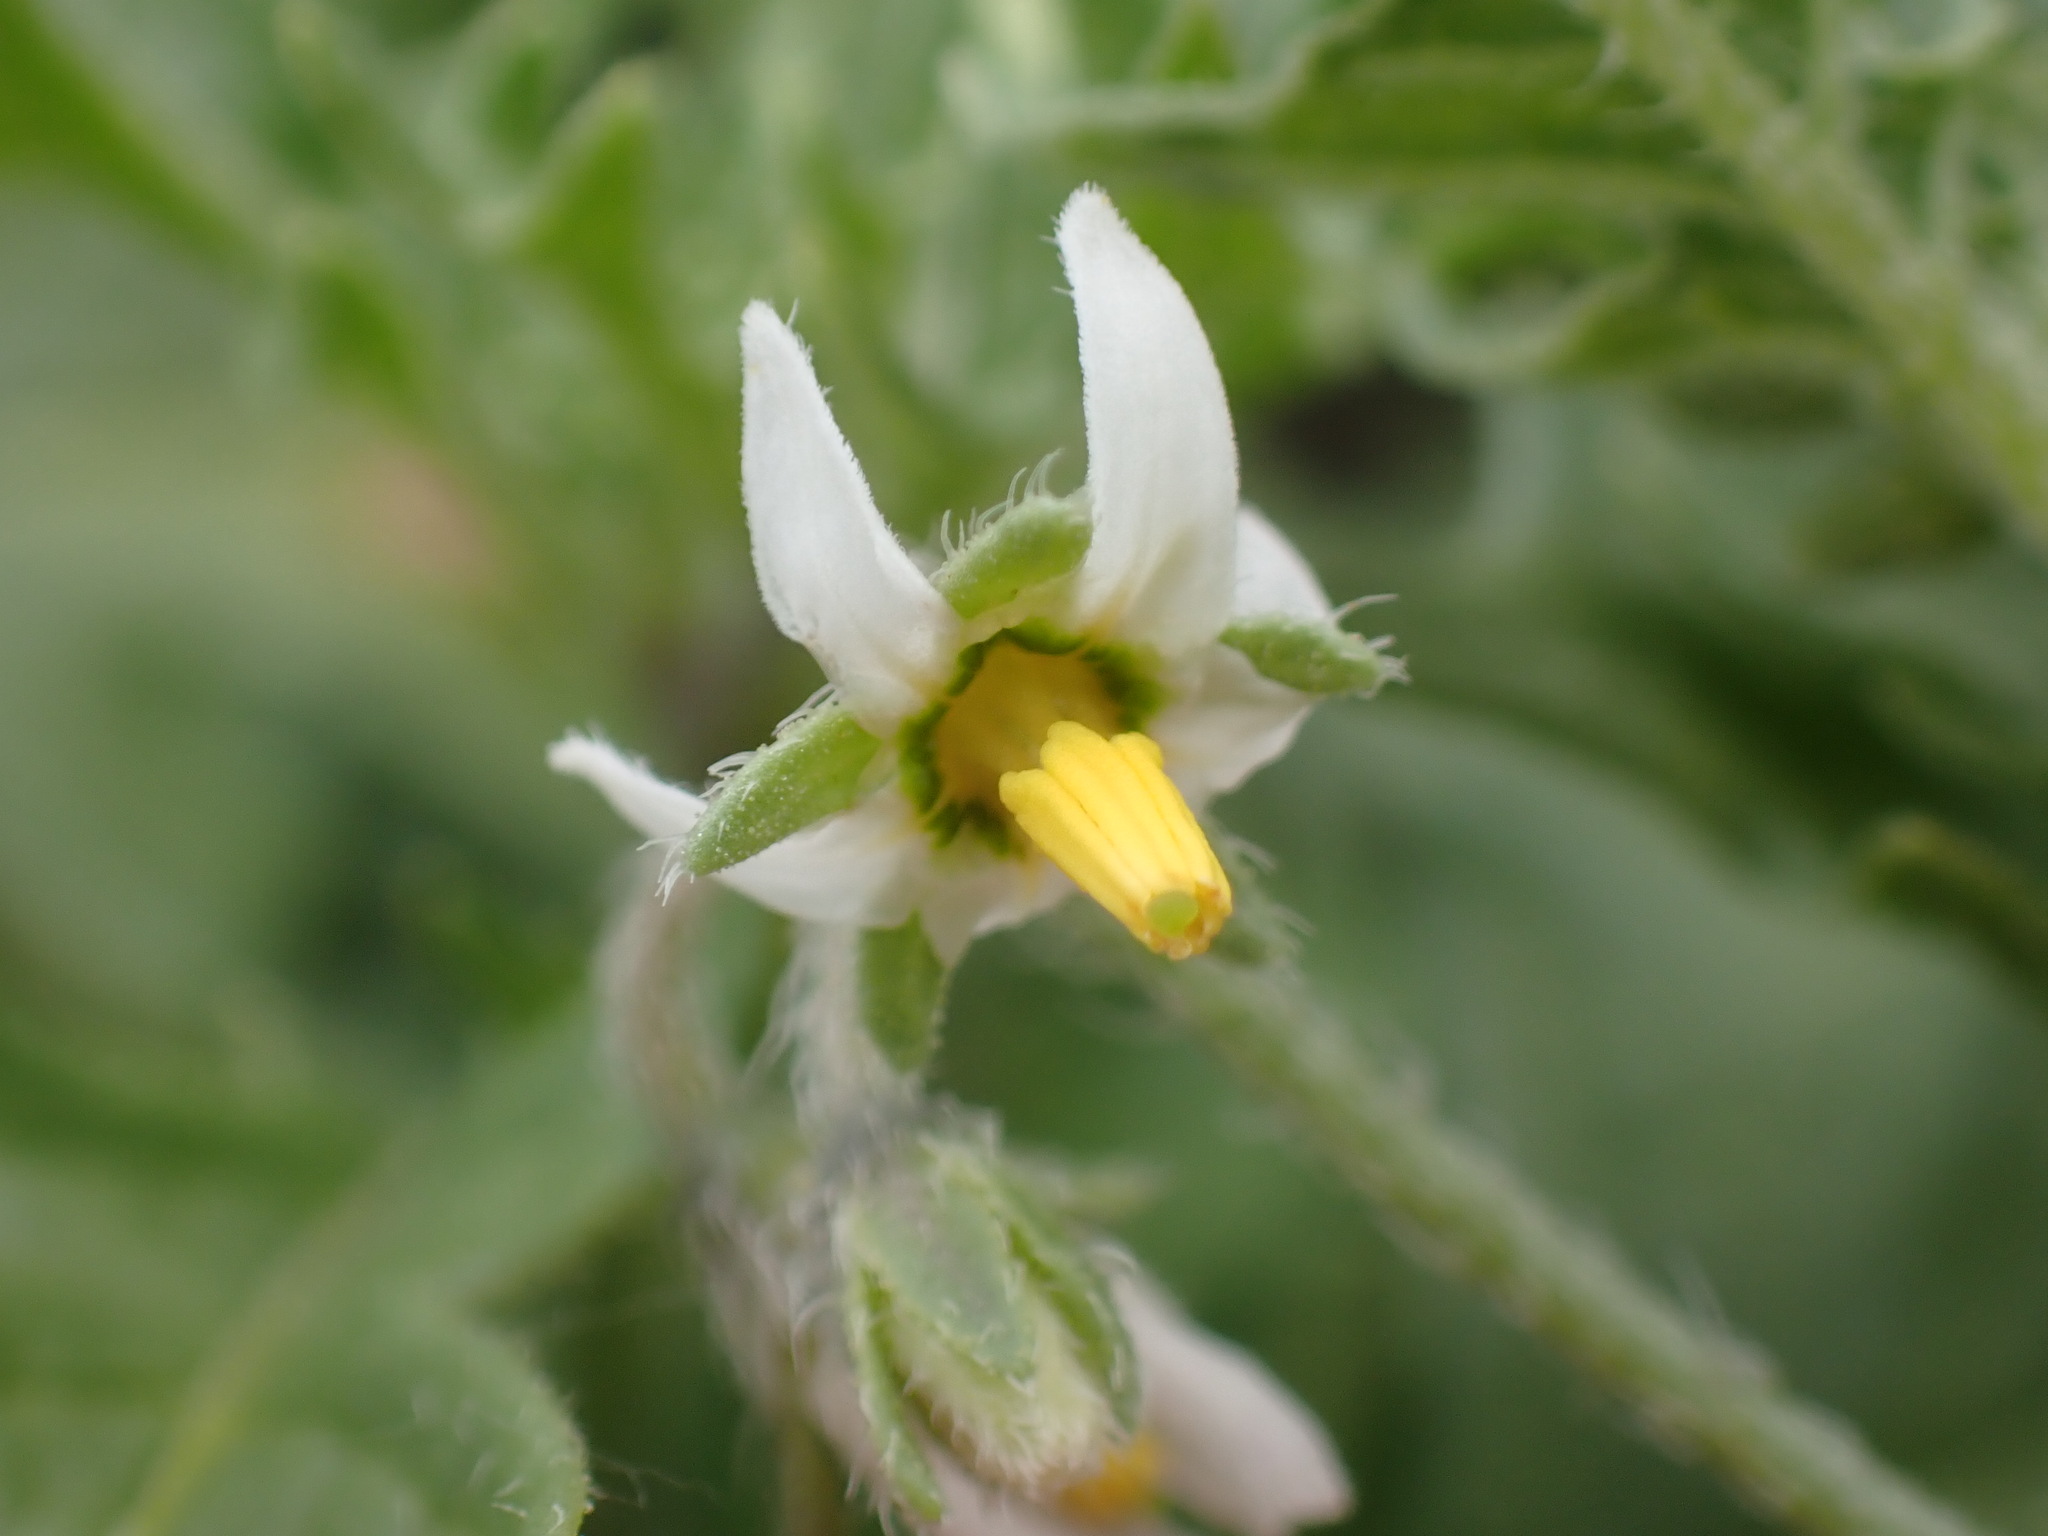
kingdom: Plantae
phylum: Tracheophyta
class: Magnoliopsida
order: Solanales
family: Solanaceae
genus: Solanum
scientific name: Solanum triflorum
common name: Small nightshade
